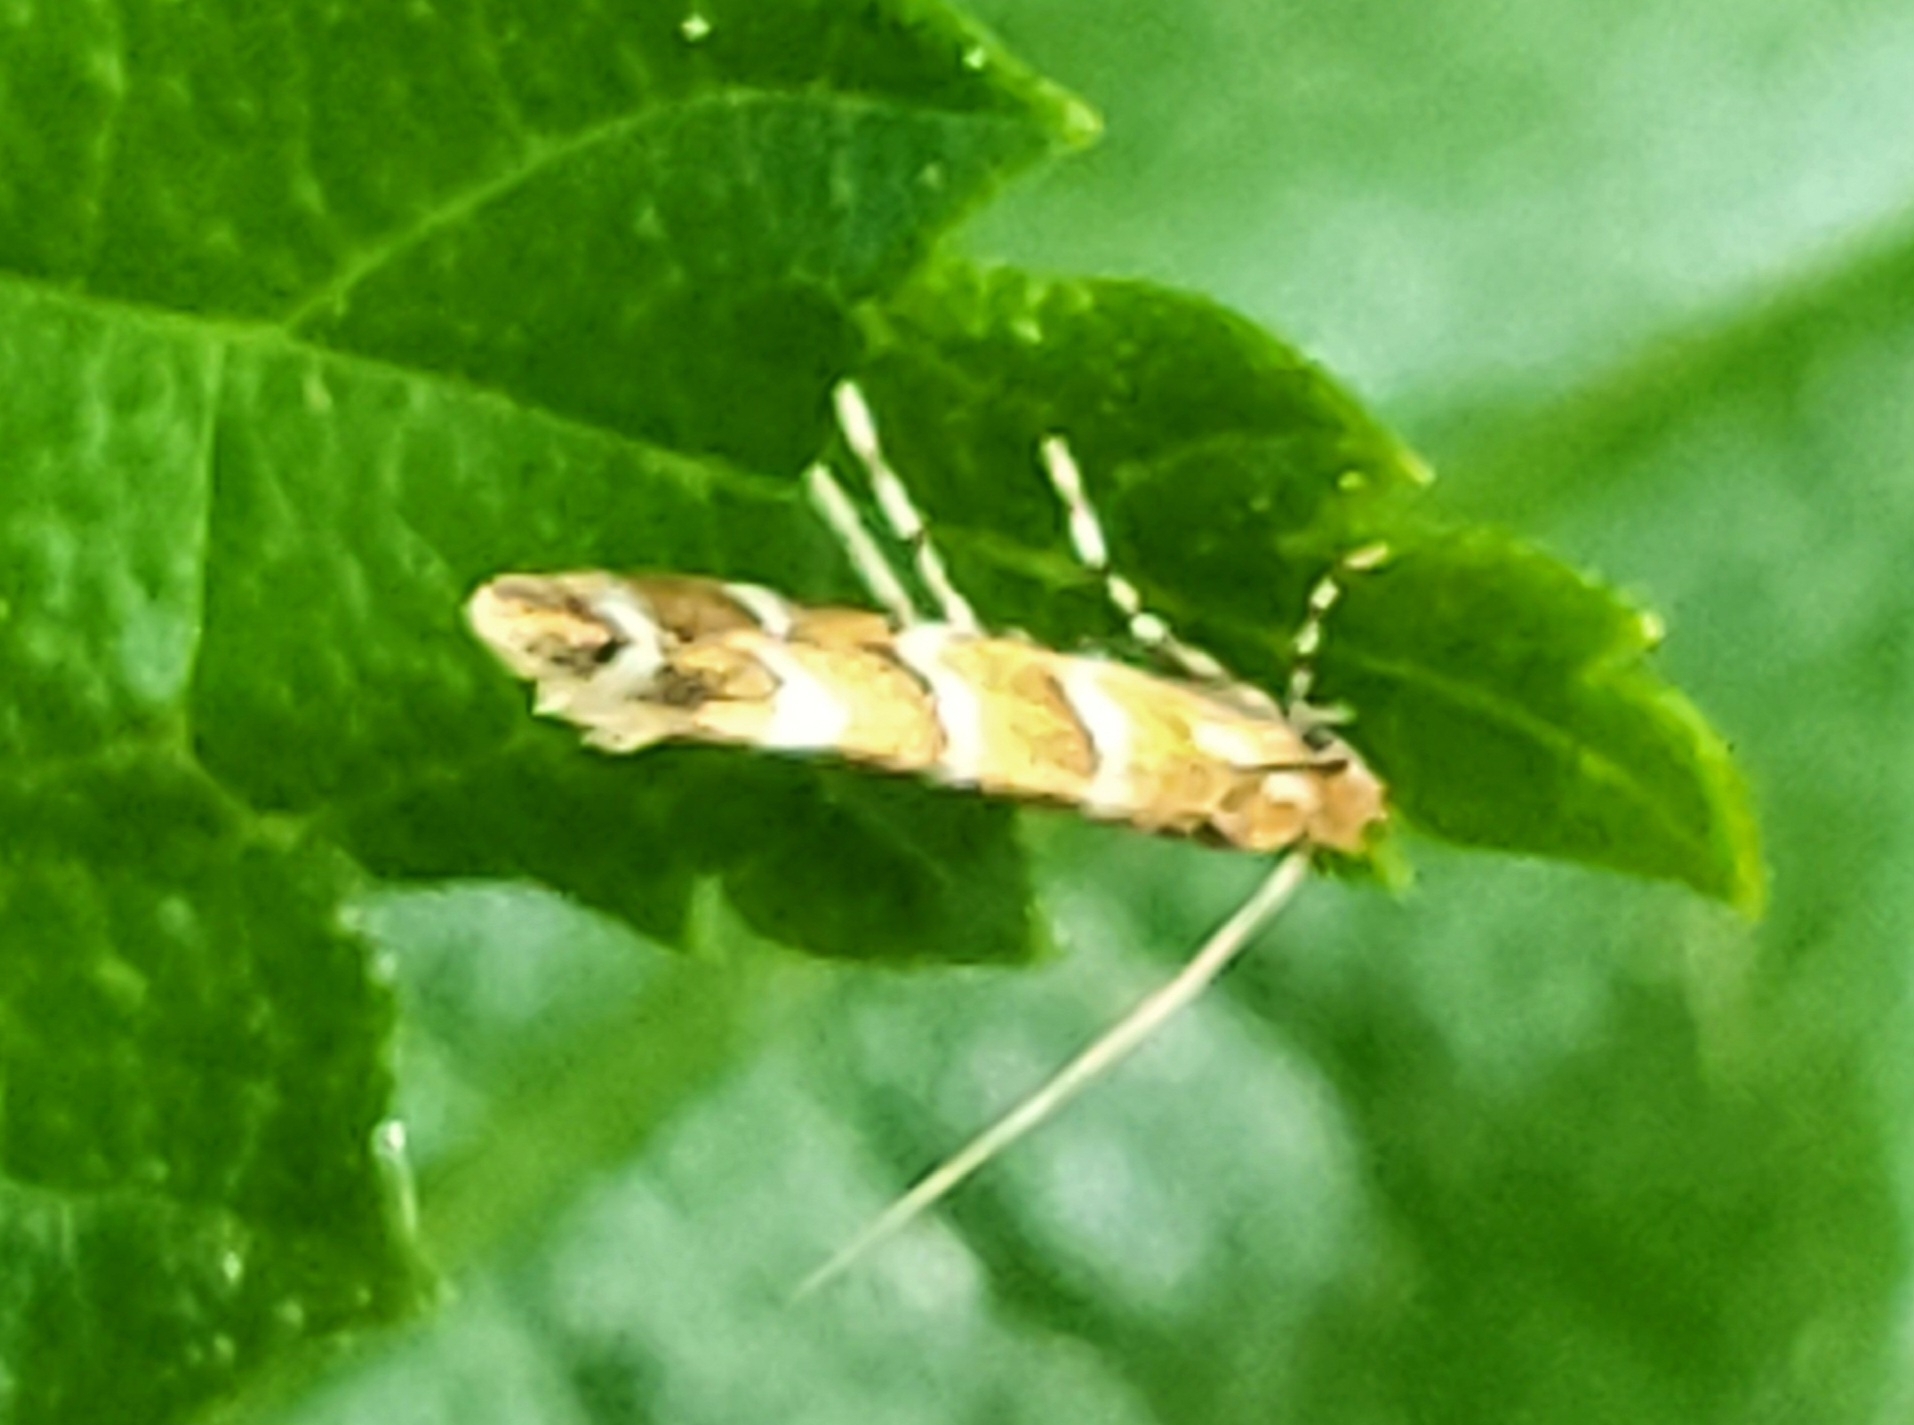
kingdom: Animalia
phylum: Arthropoda
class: Insecta
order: Lepidoptera
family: Gracillariidae
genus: Cameraria
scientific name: Cameraria ohridella
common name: Horse-chestnut leaf-miner
